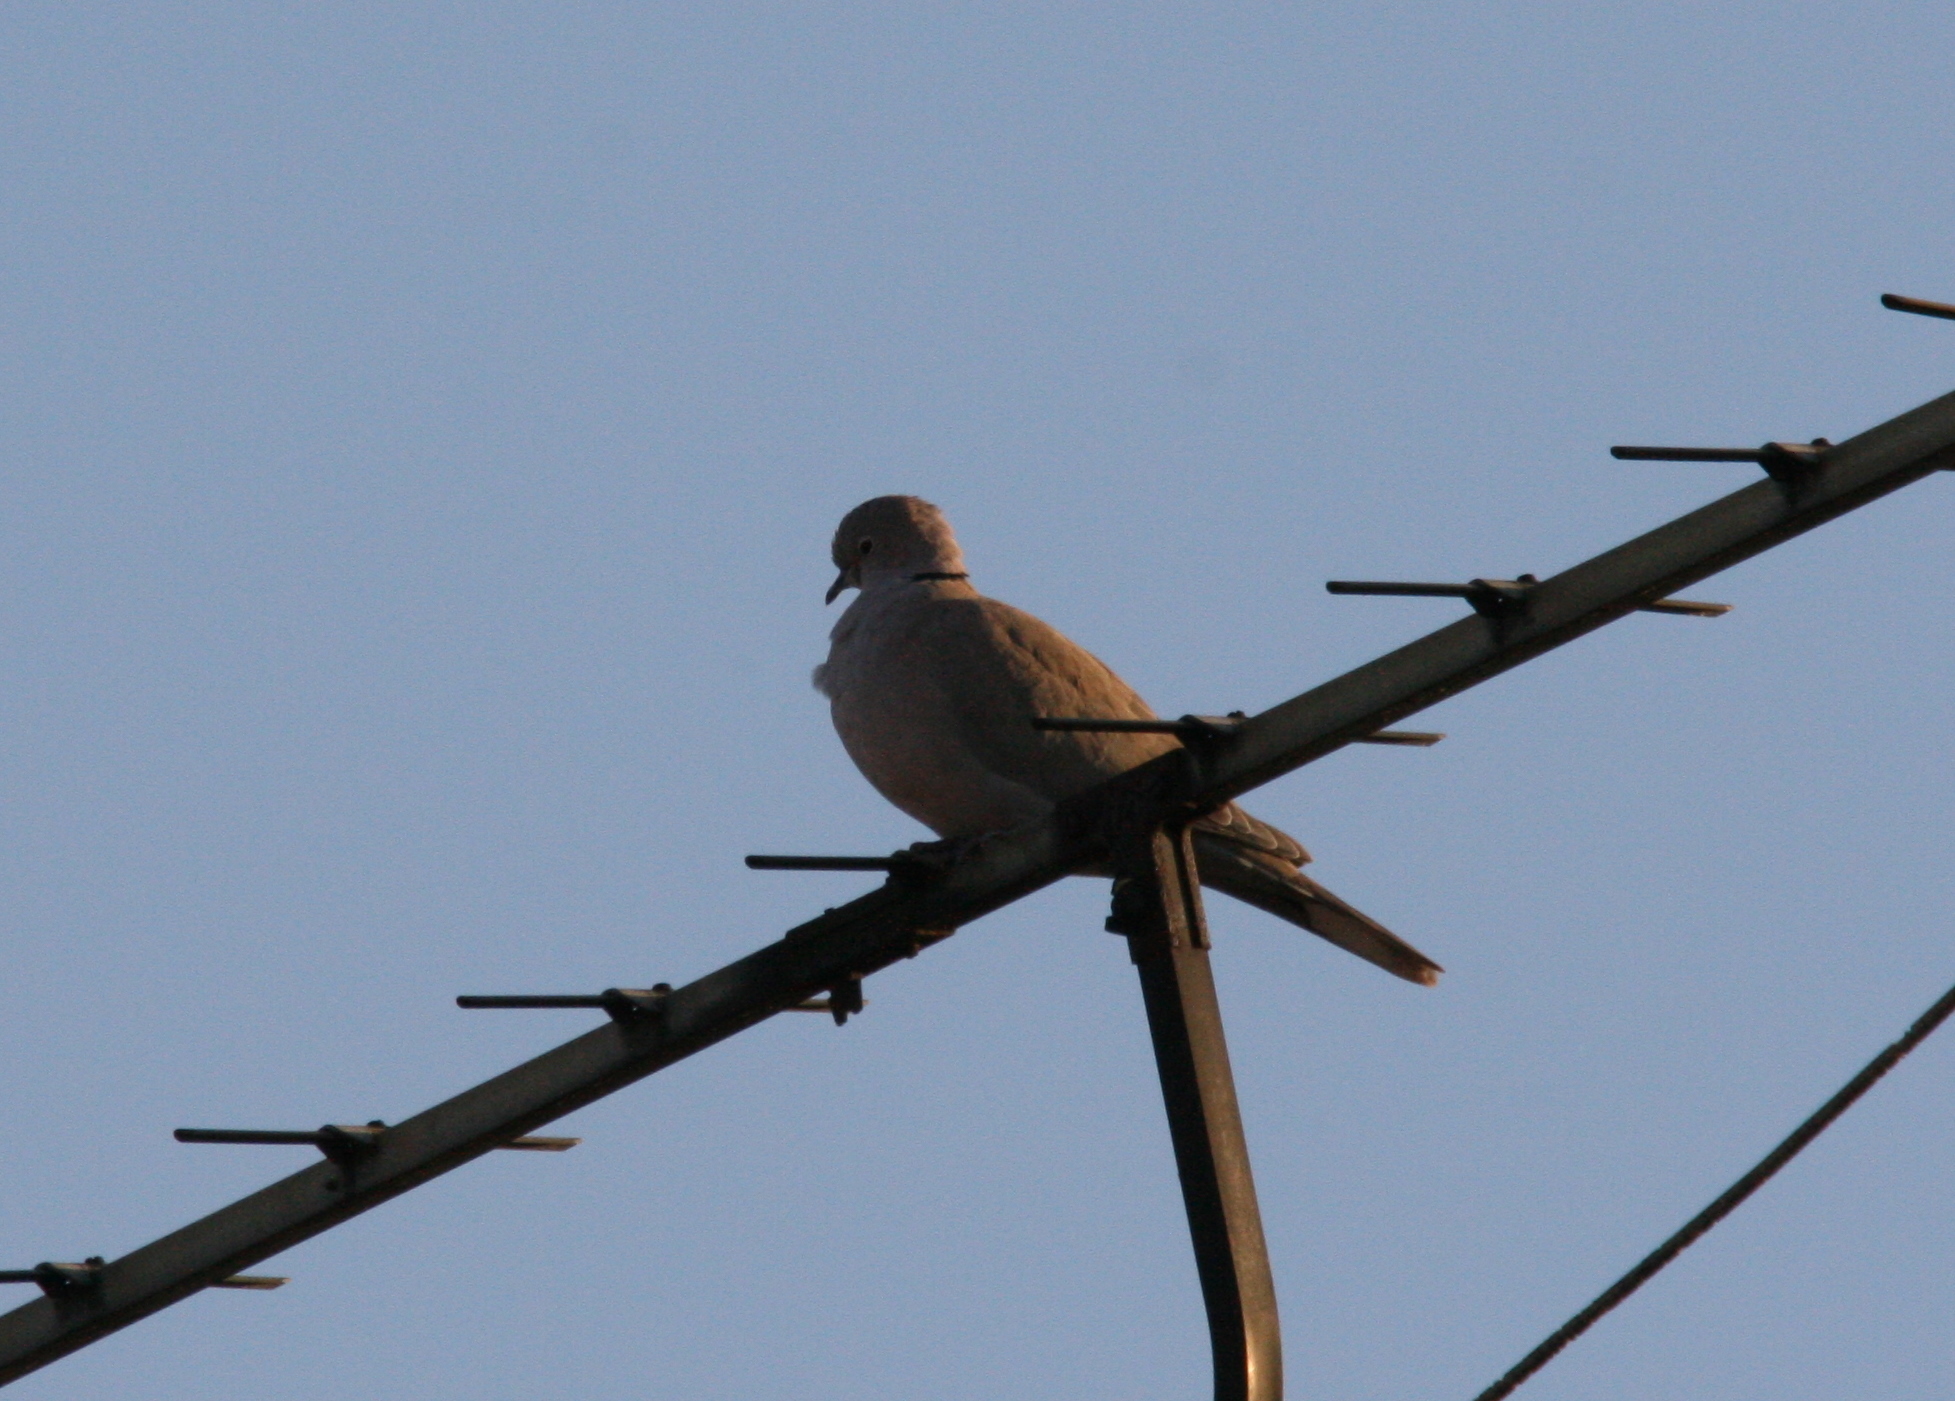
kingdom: Animalia
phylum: Chordata
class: Aves
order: Columbiformes
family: Columbidae
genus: Streptopelia
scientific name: Streptopelia decaocto
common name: Eurasian collared dove
